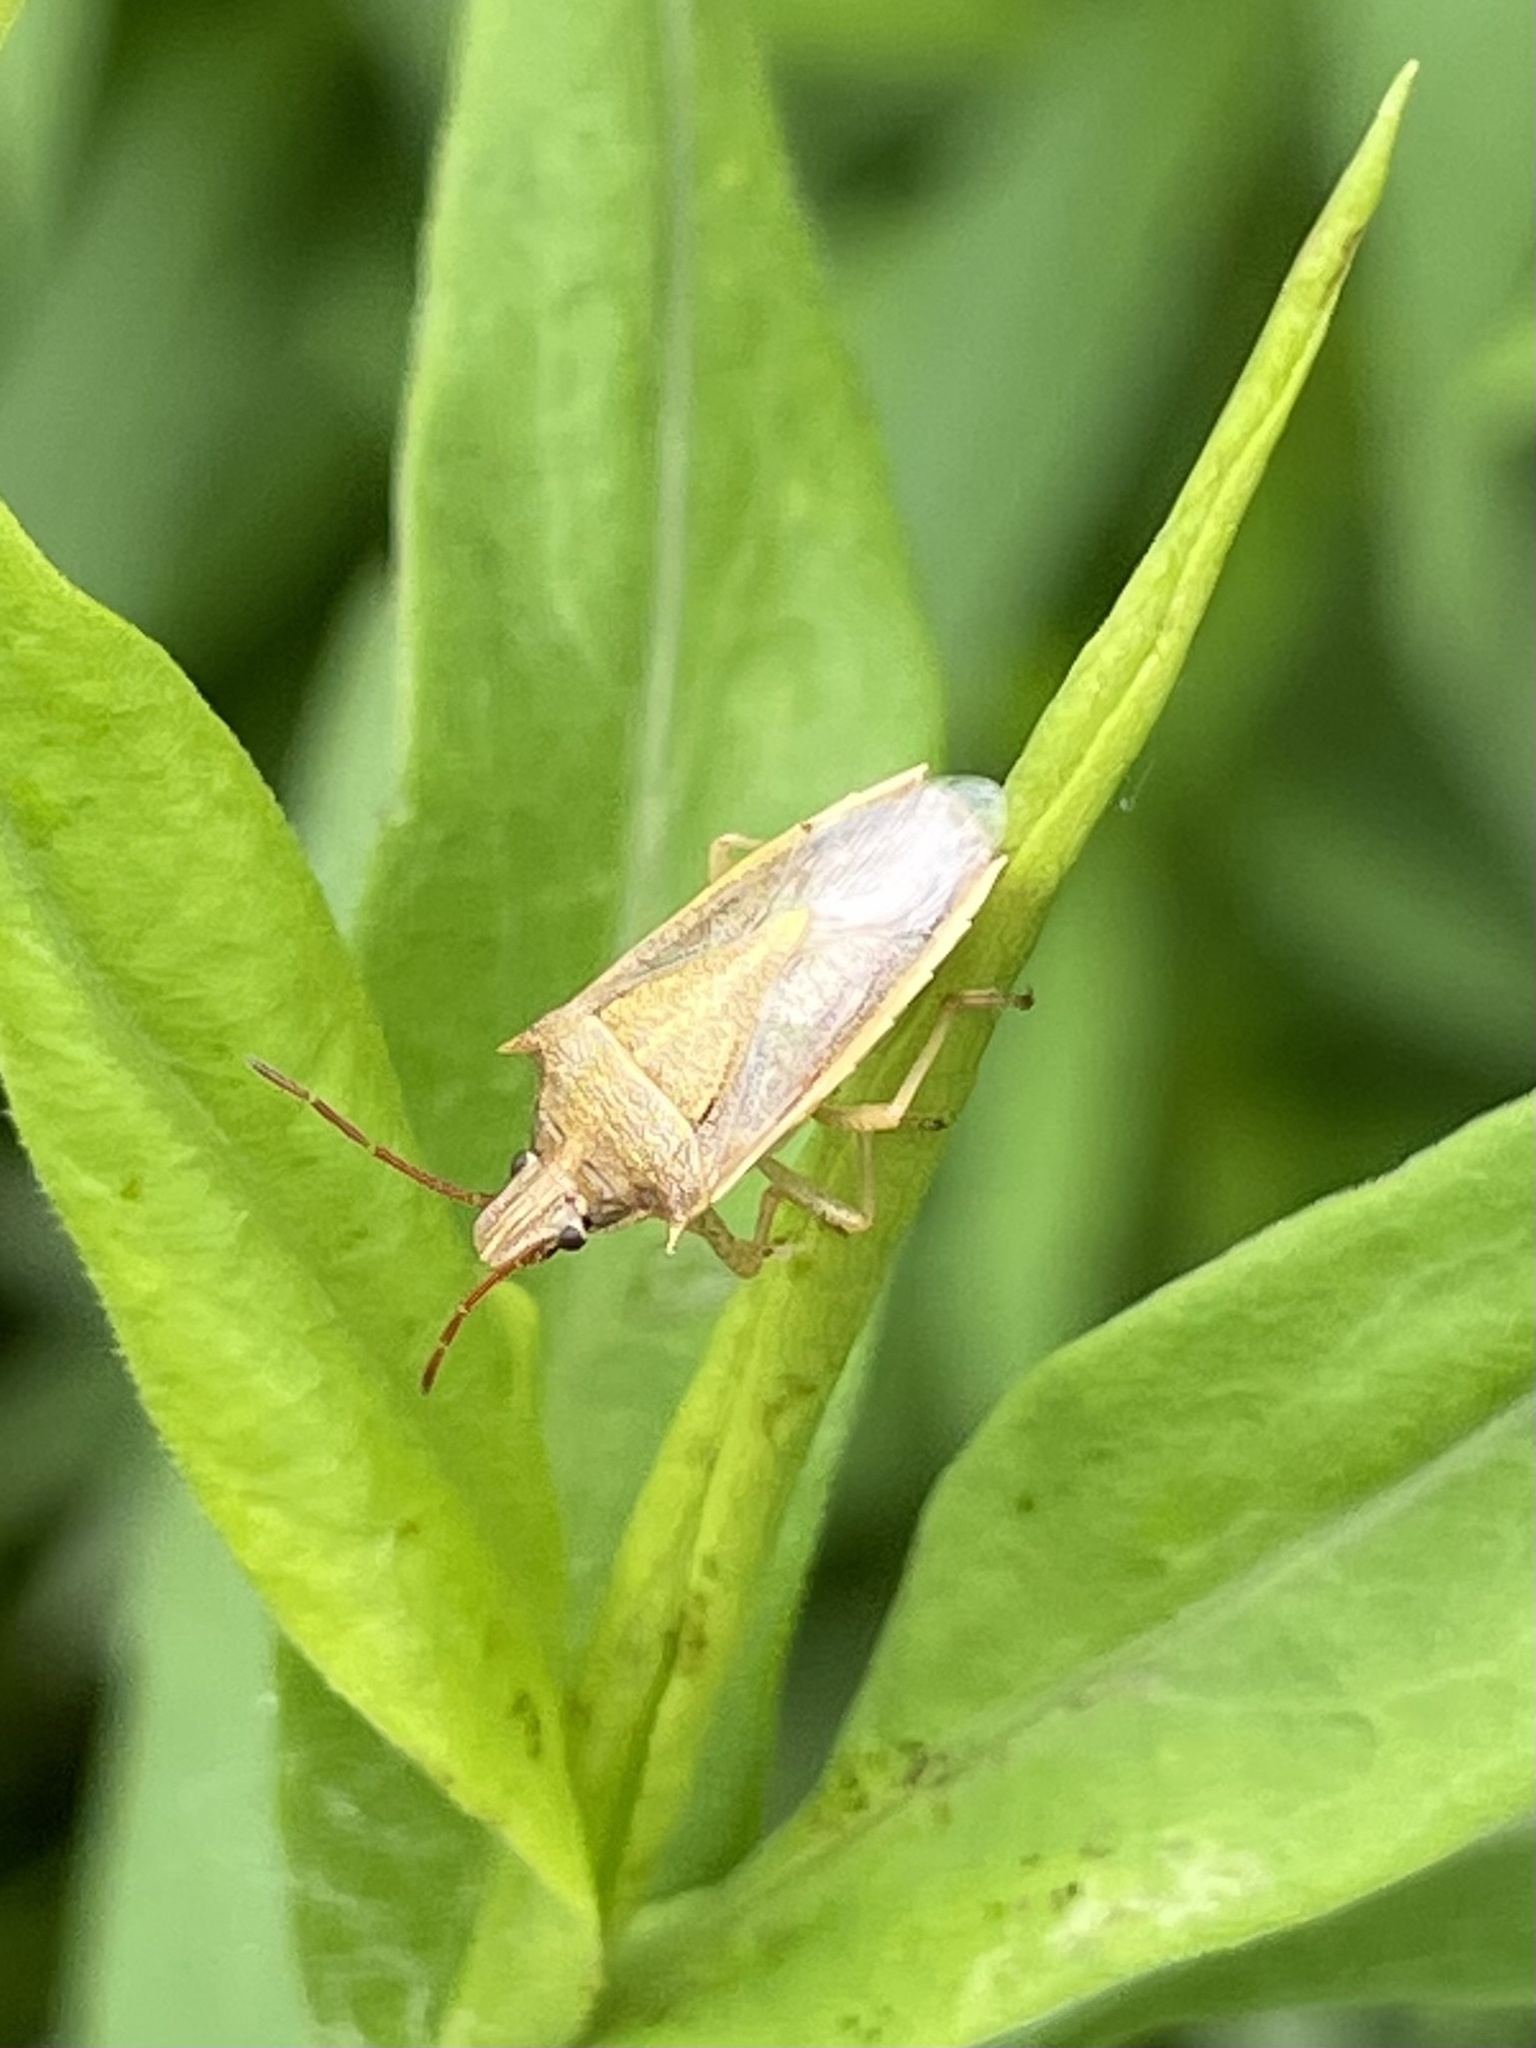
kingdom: Animalia
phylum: Arthropoda
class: Insecta
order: Hemiptera
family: Pentatomidae
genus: Oebalus
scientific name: Oebalus pugnax
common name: Rice stink bug
